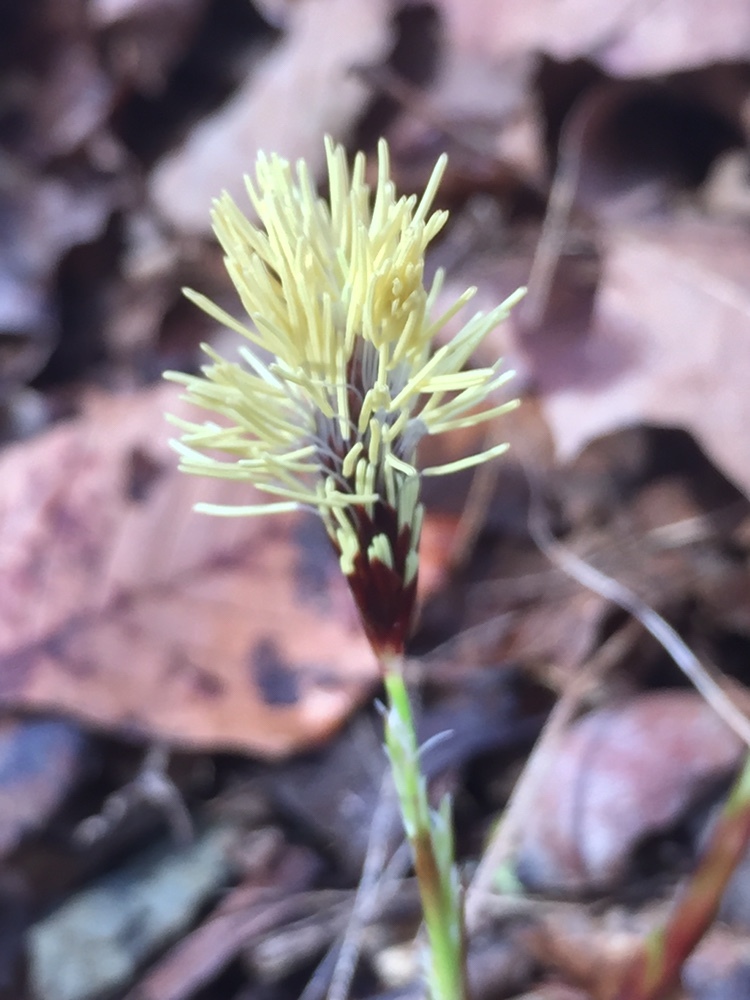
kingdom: Plantae
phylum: Tracheophyta
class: Liliopsida
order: Poales
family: Cyperaceae
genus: Carex
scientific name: Carex plantaginea
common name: Plantain-leaved sedge
